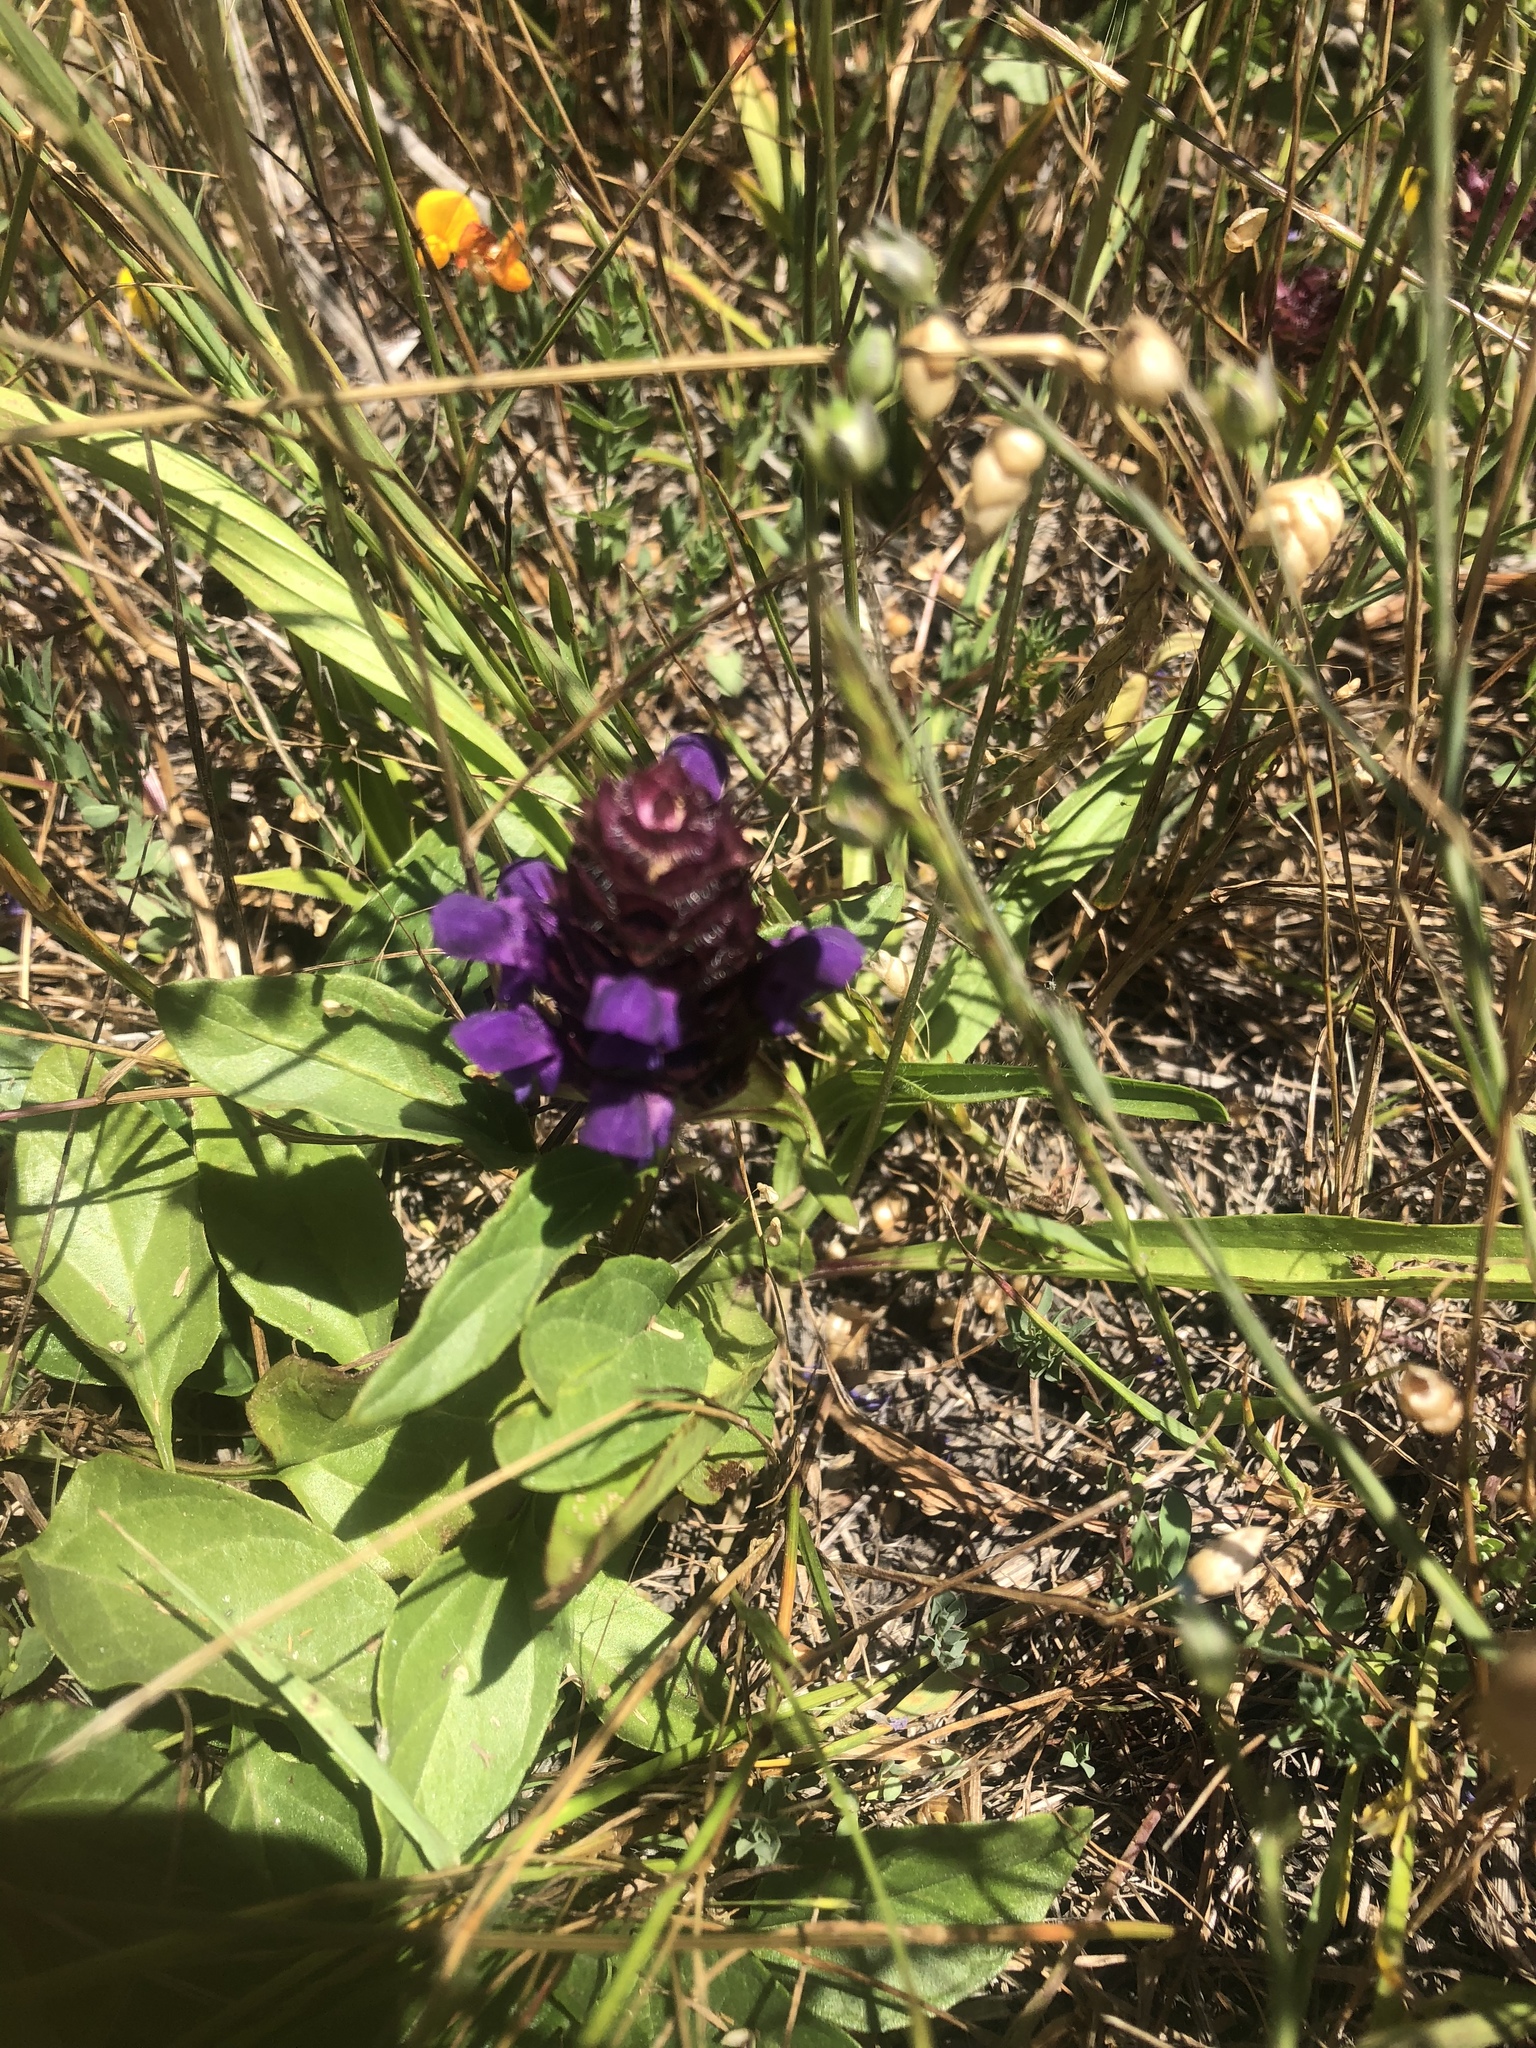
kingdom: Plantae
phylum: Tracheophyta
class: Magnoliopsida
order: Lamiales
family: Lamiaceae
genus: Prunella
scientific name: Prunella vulgaris
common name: Heal-all
